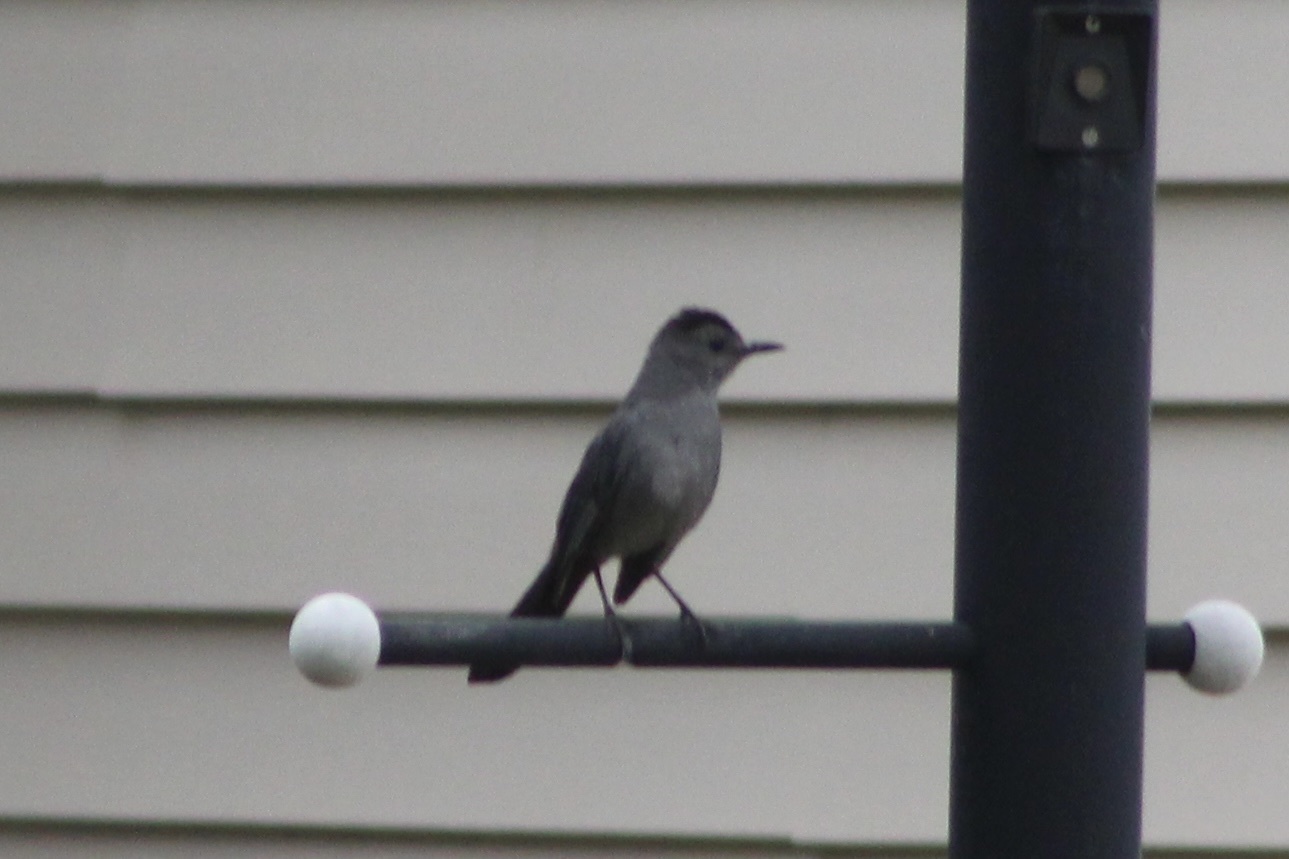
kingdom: Animalia
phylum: Chordata
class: Aves
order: Passeriformes
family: Mimidae
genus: Dumetella
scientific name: Dumetella carolinensis
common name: Gray catbird
